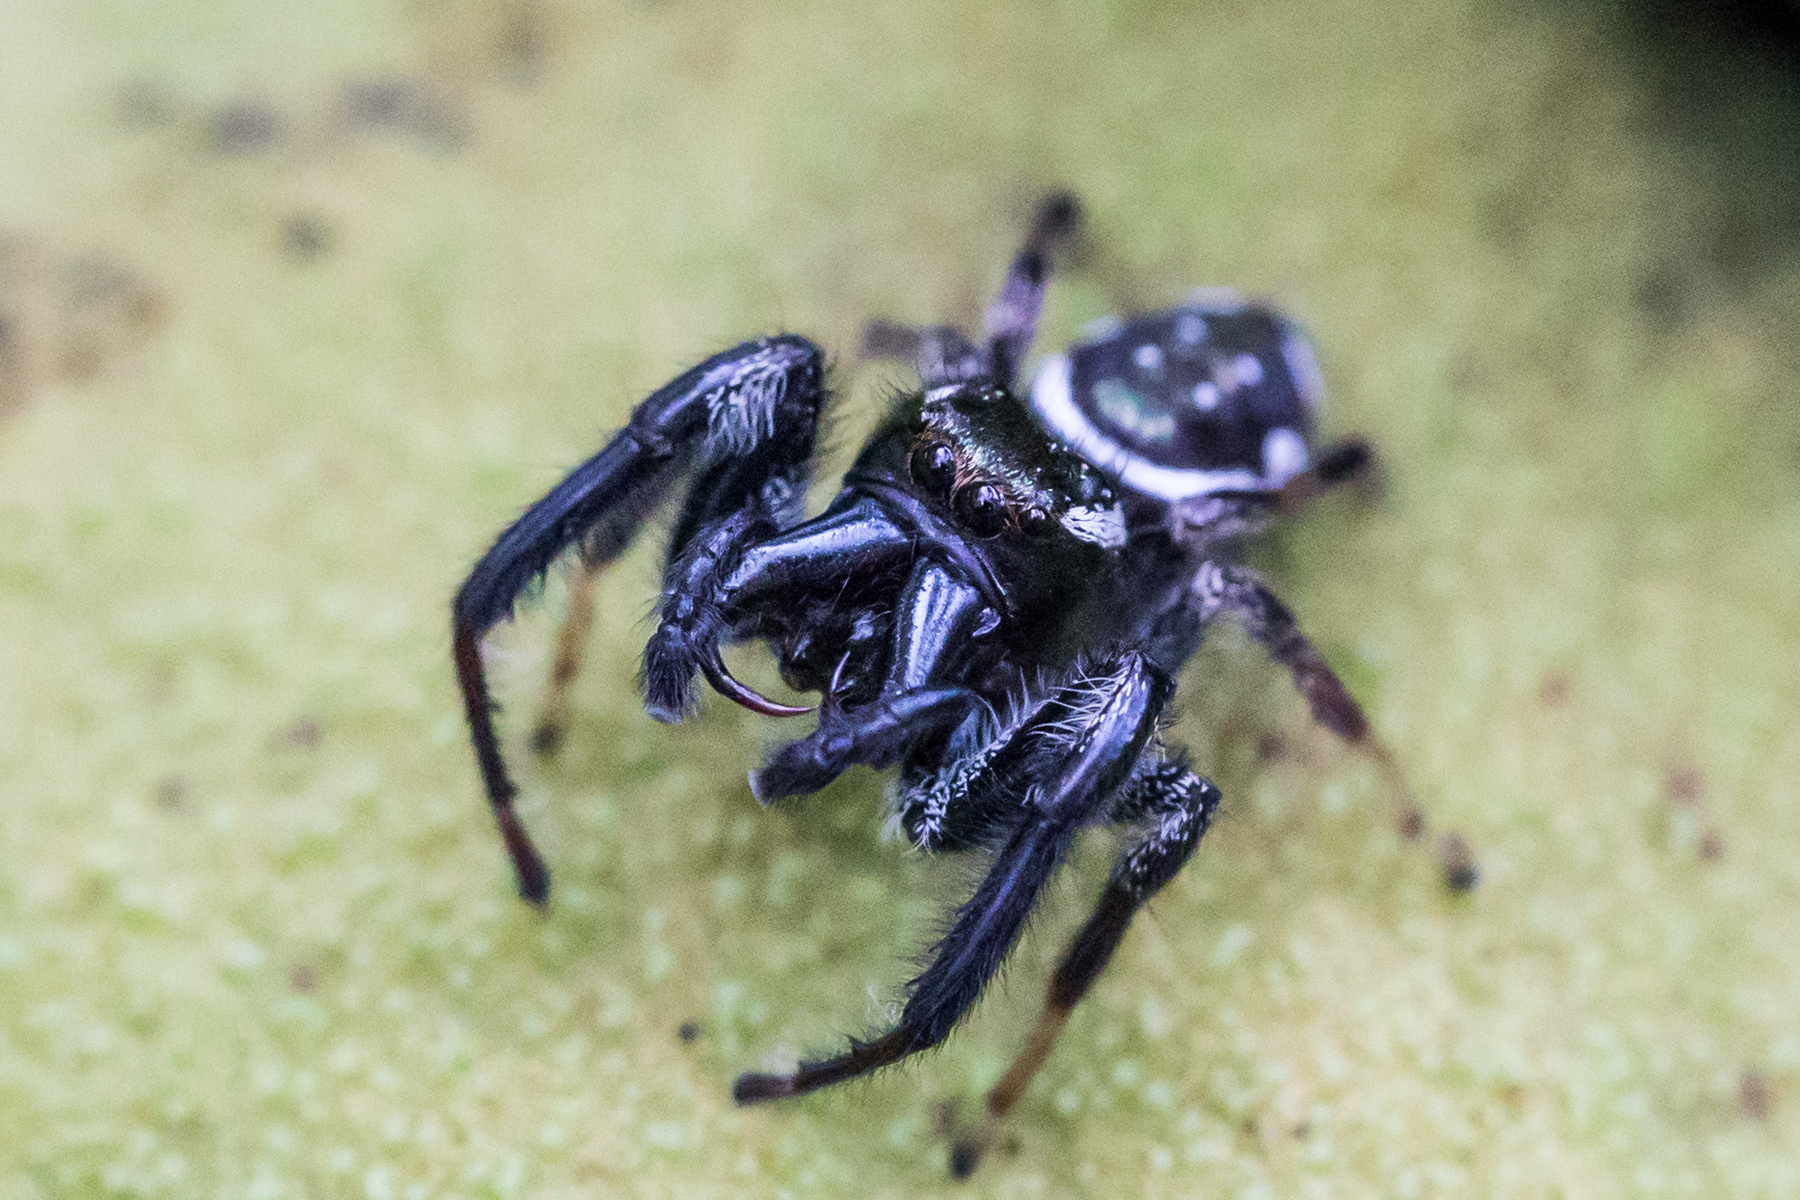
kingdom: Animalia
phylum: Arthropoda
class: Arachnida
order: Araneae
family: Salticidae
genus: Paraphidippus
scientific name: Paraphidippus aurantius
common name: Jumping spiders
